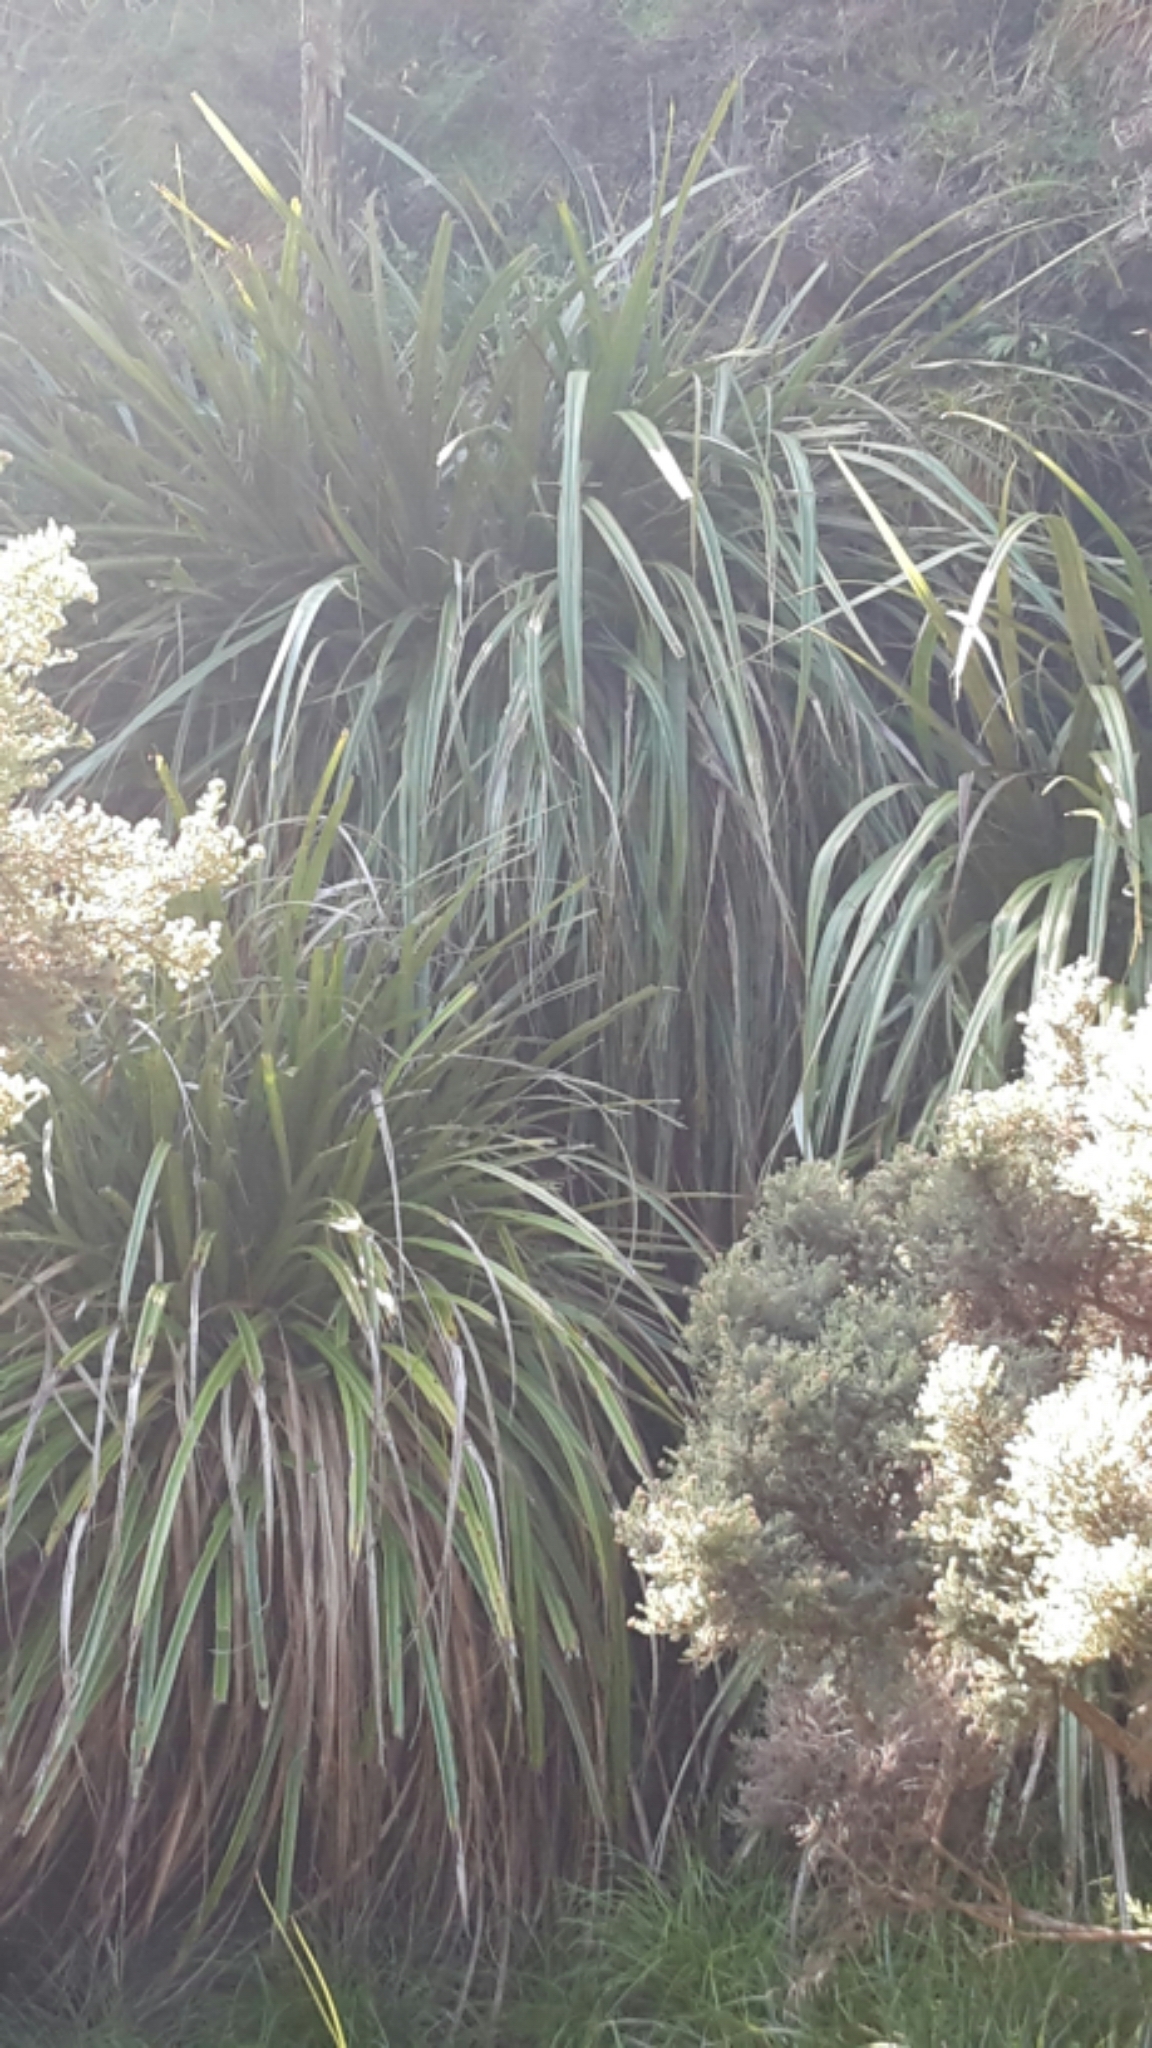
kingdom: Plantae
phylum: Tracheophyta
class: Liliopsida
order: Asparagales
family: Asteliaceae
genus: Astelia
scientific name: Astelia fragrans
